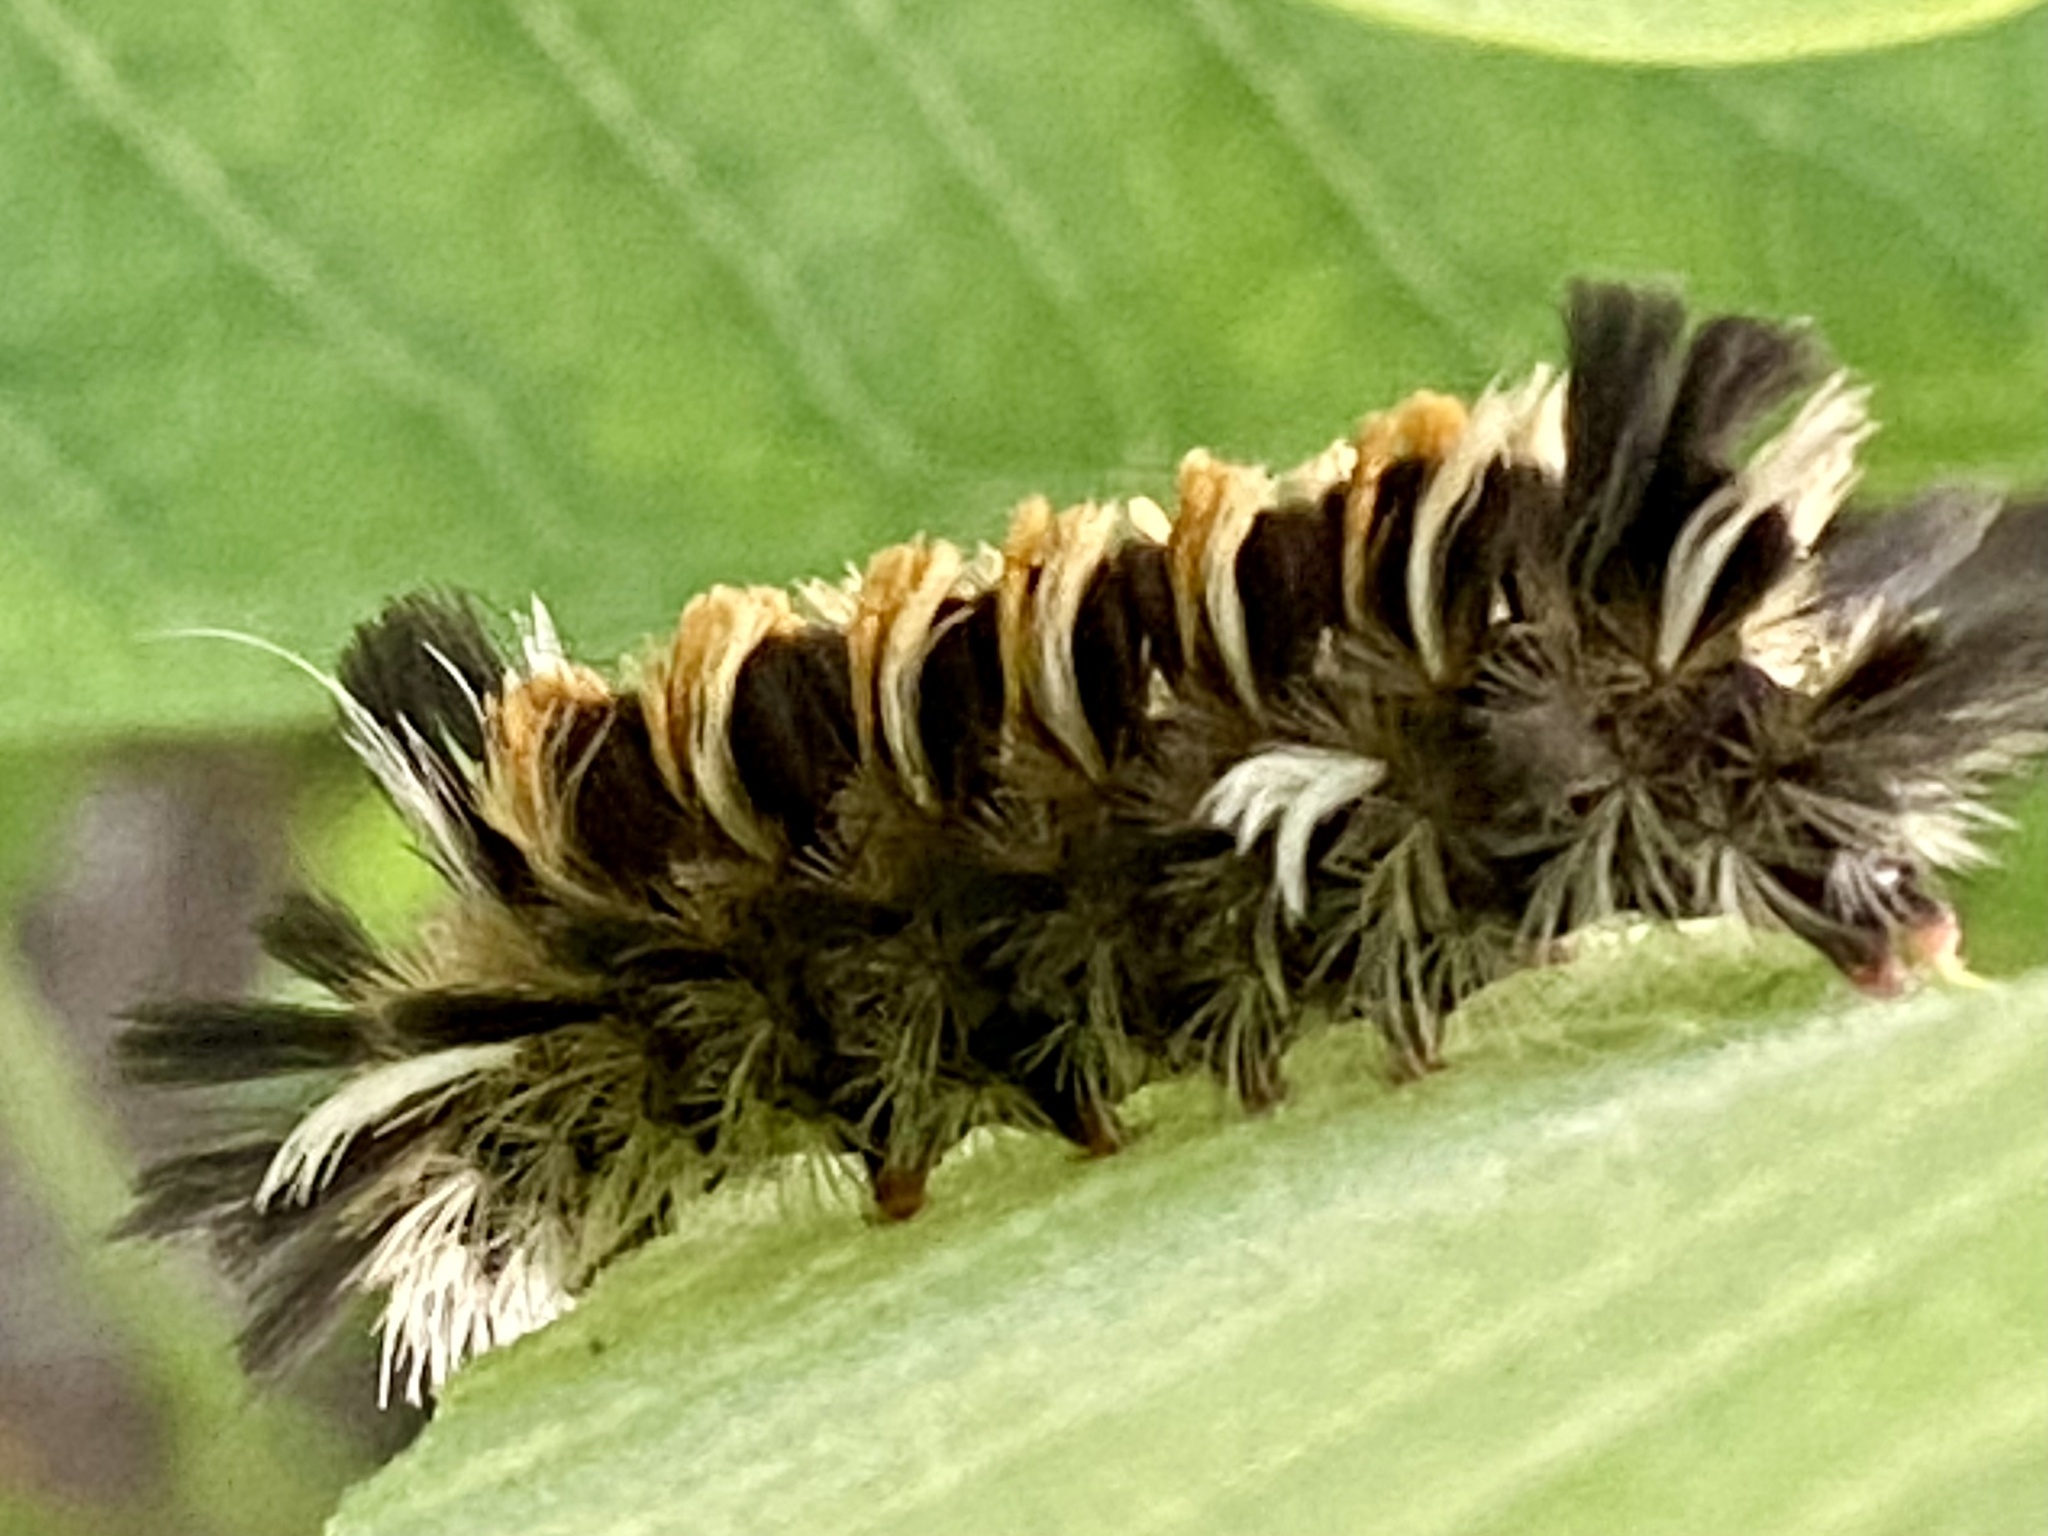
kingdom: Animalia
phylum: Arthropoda
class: Insecta
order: Lepidoptera
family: Erebidae
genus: Euchaetes
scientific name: Euchaetes egle
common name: Milkweed tussock moth
